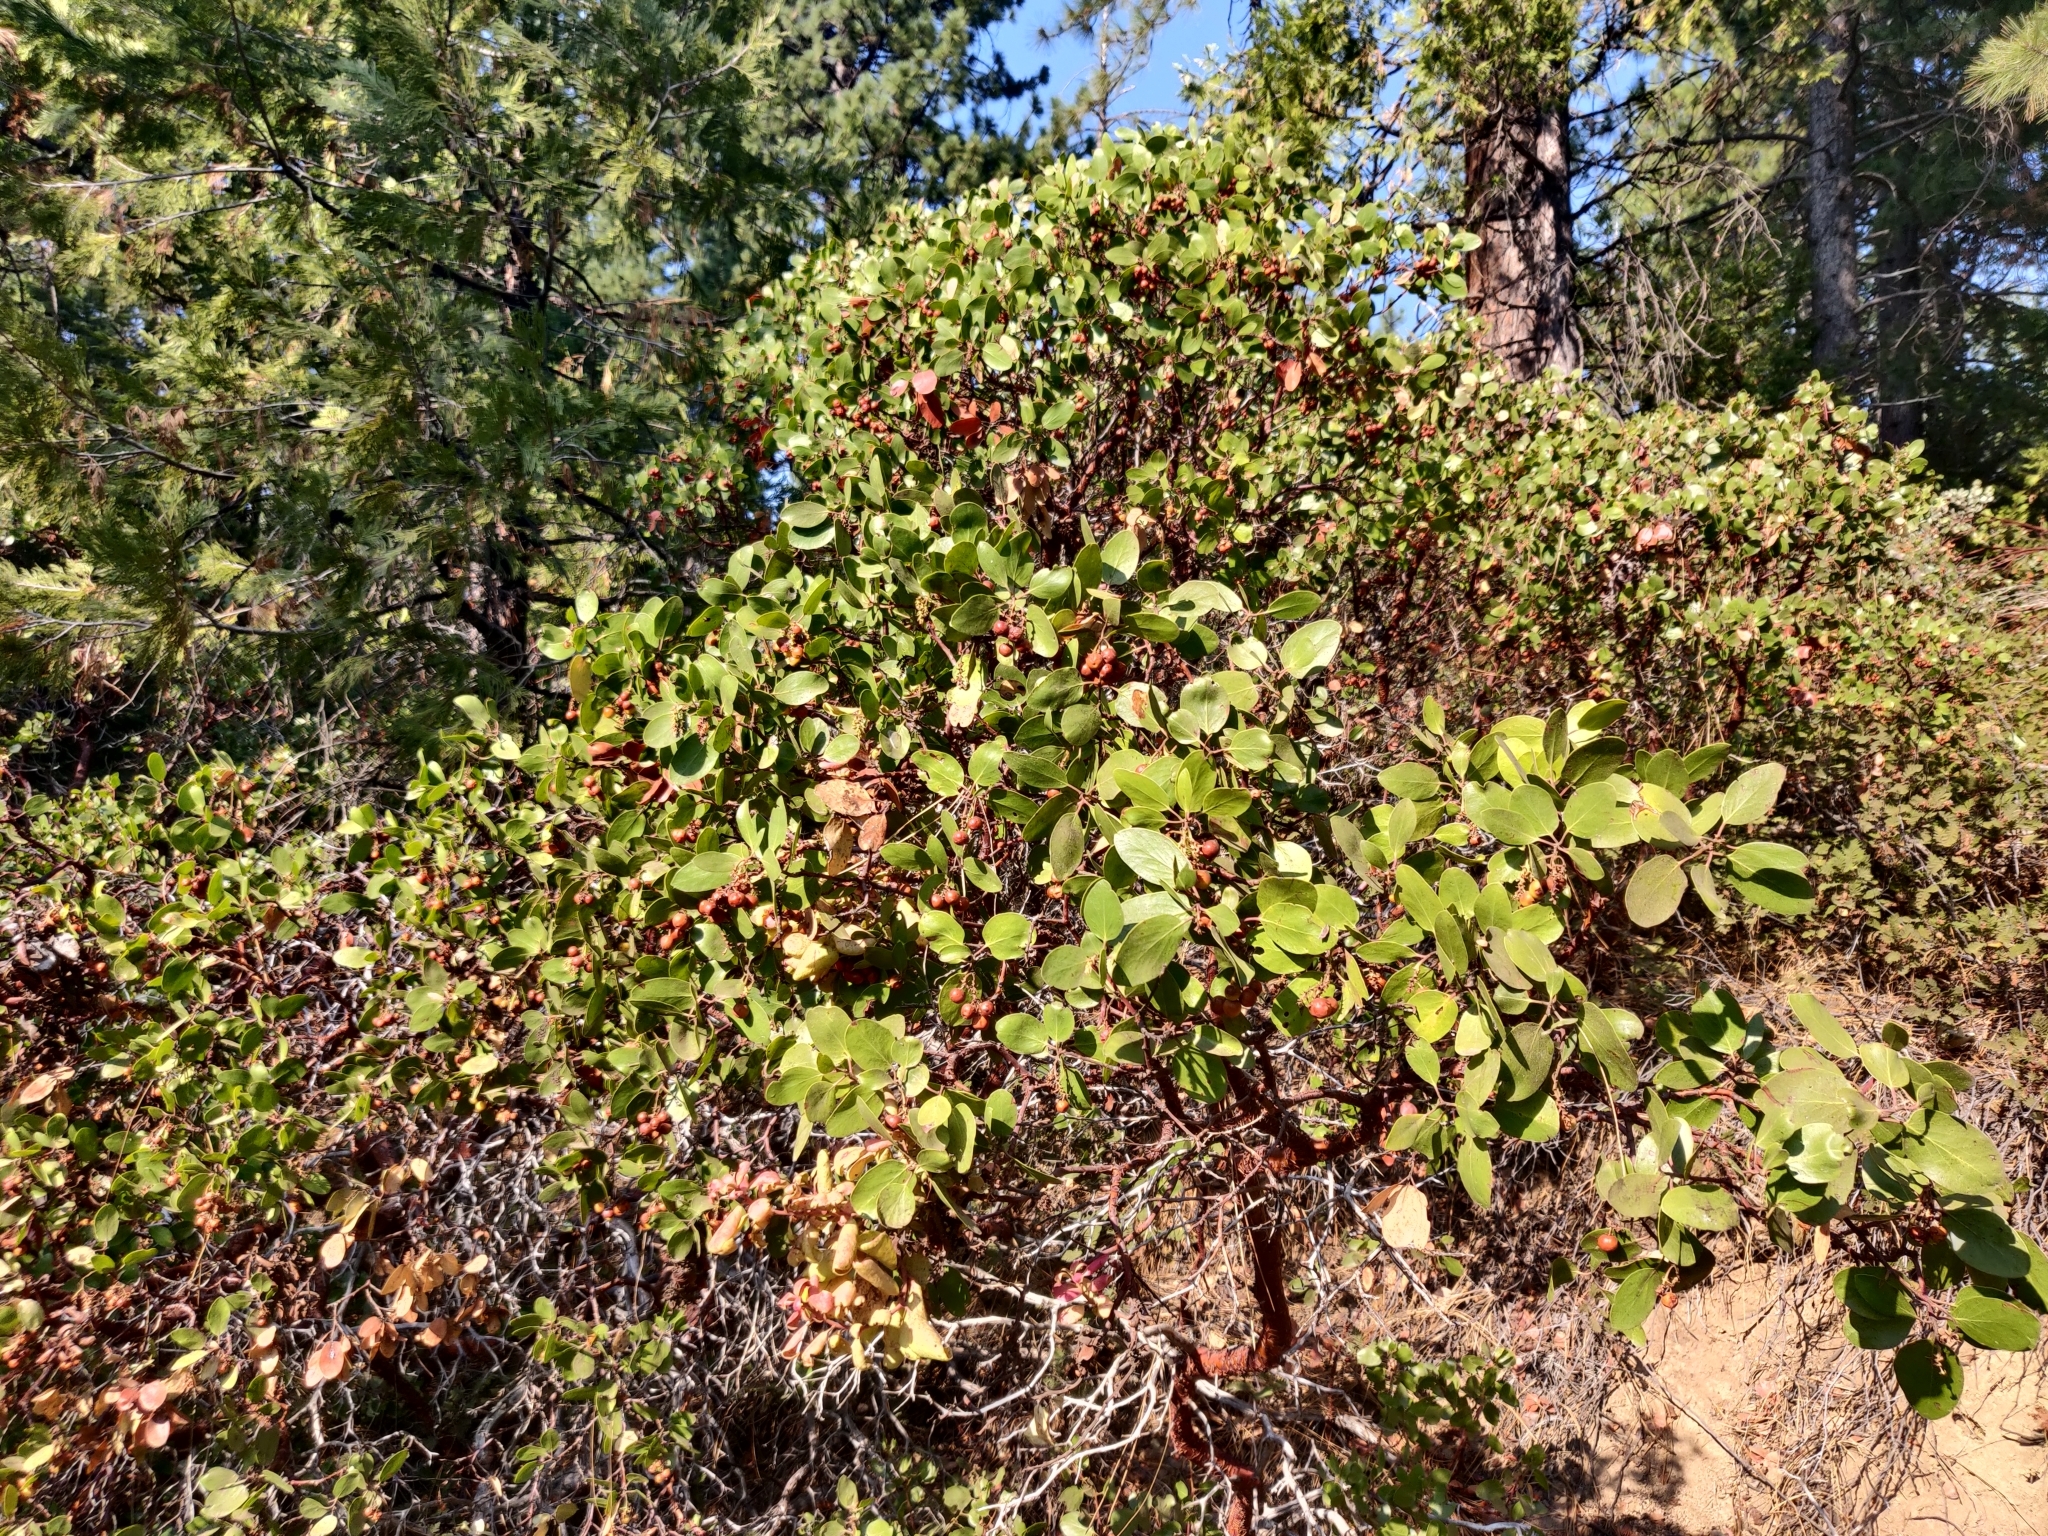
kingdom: Plantae
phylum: Tracheophyta
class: Magnoliopsida
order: Ericales
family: Ericaceae
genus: Arctostaphylos
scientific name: Arctostaphylos patula
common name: Green-leaf manzanita
